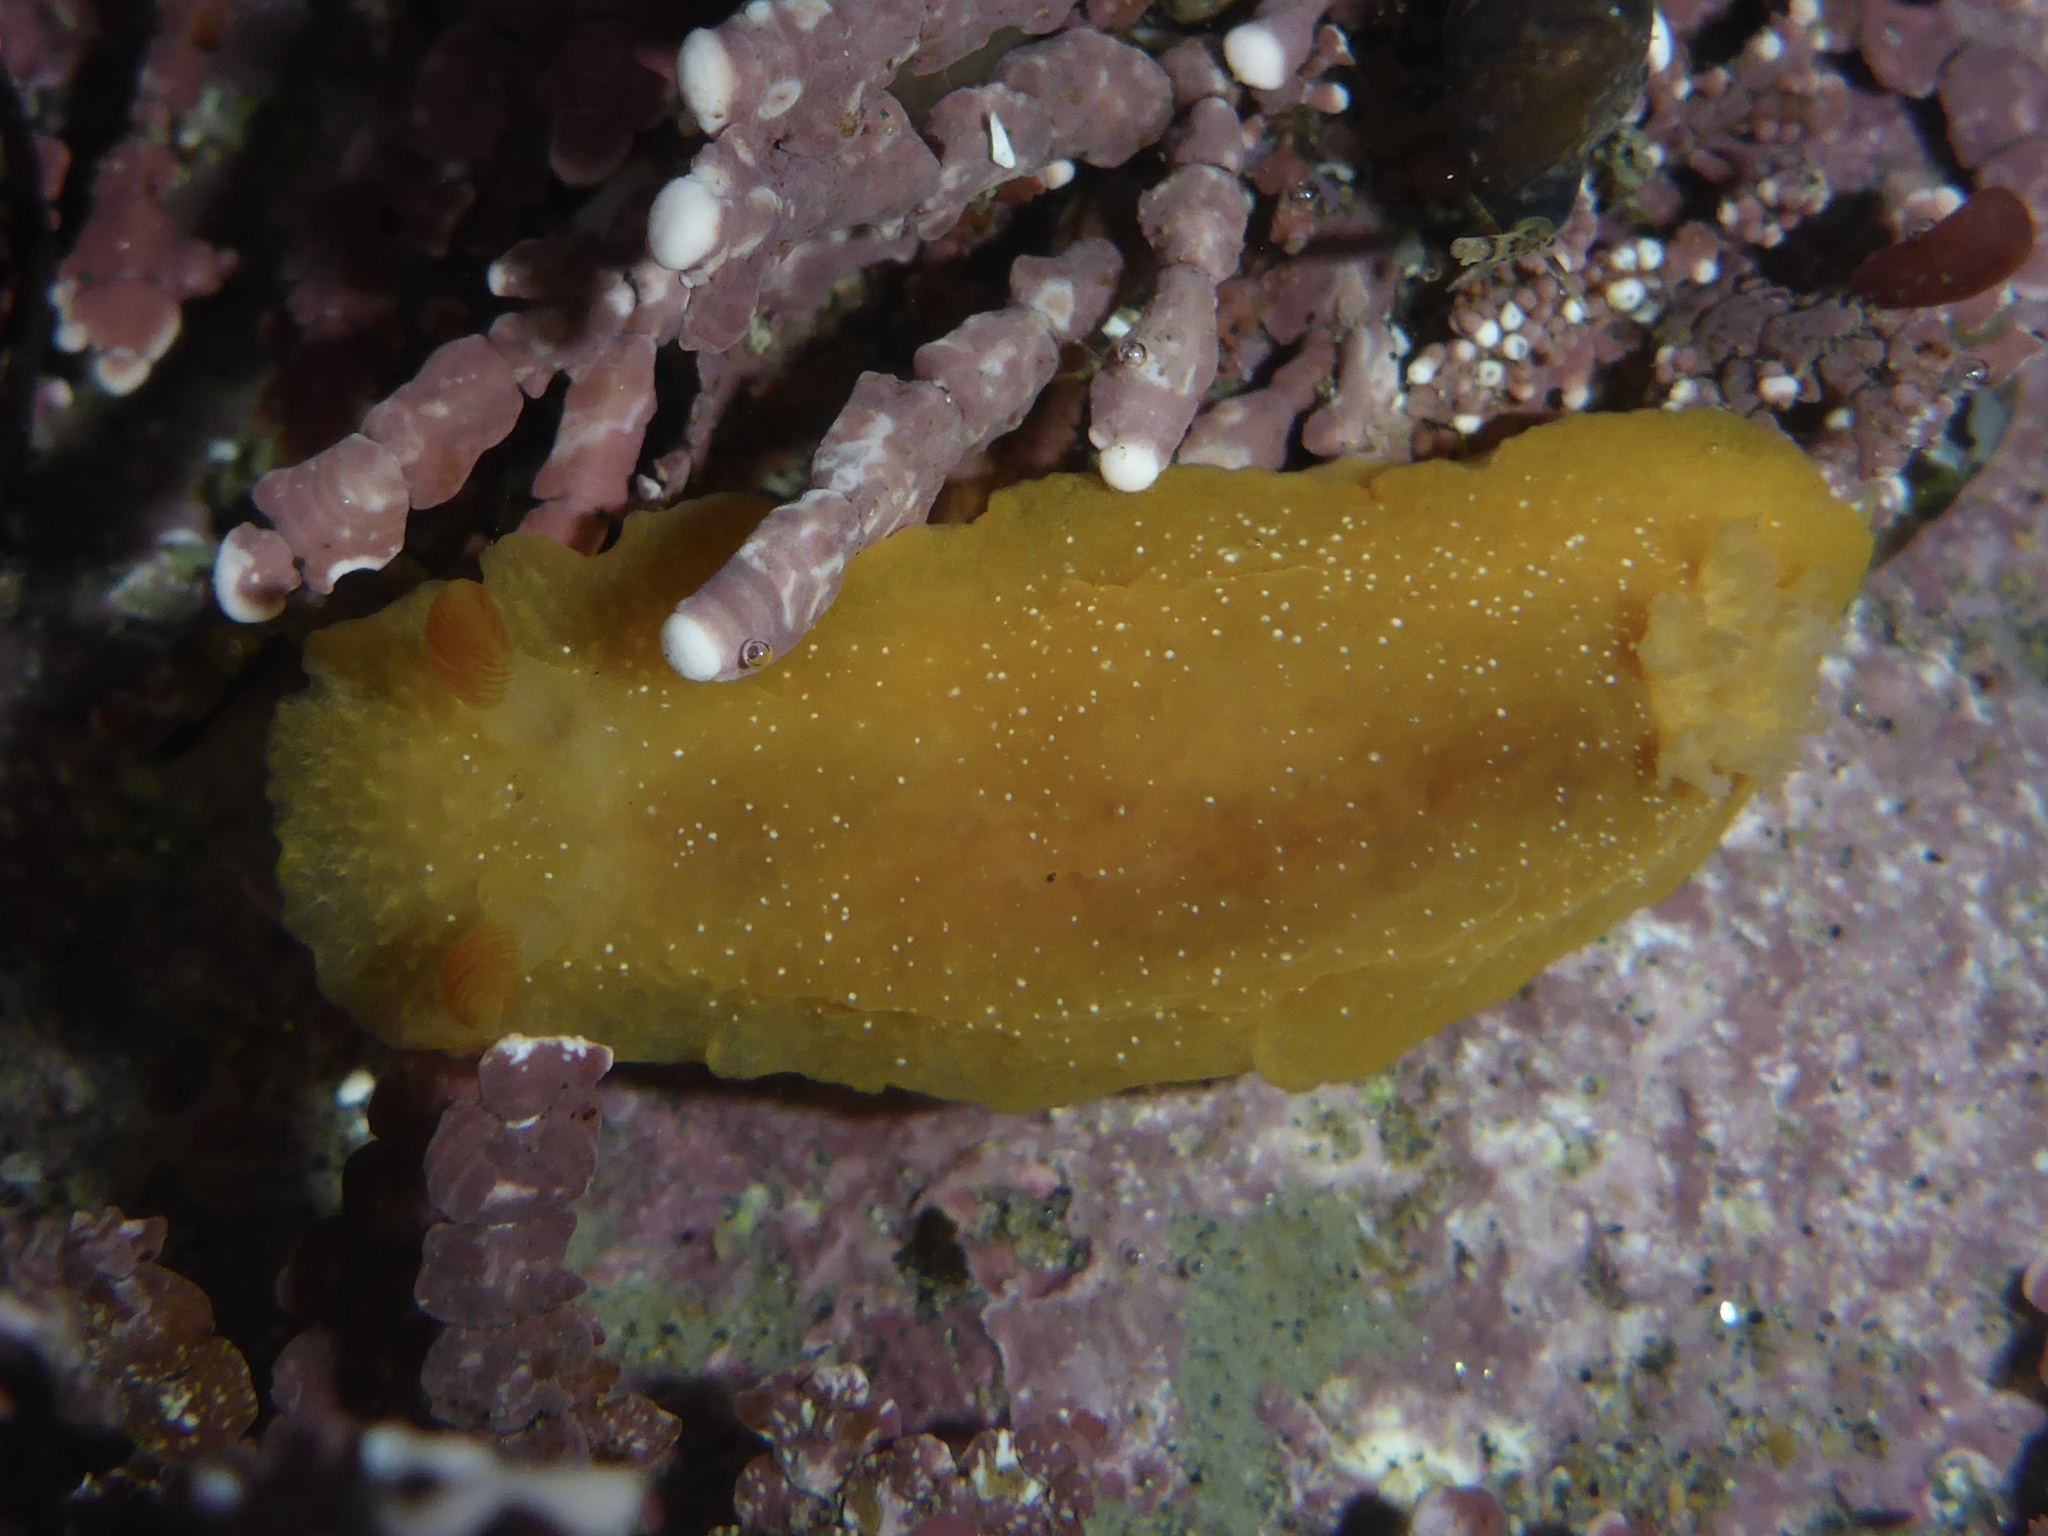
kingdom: Animalia
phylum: Mollusca
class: Gastropoda
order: Nudibranchia
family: Dendrodorididae
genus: Doriopsilla
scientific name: Doriopsilla fulva
